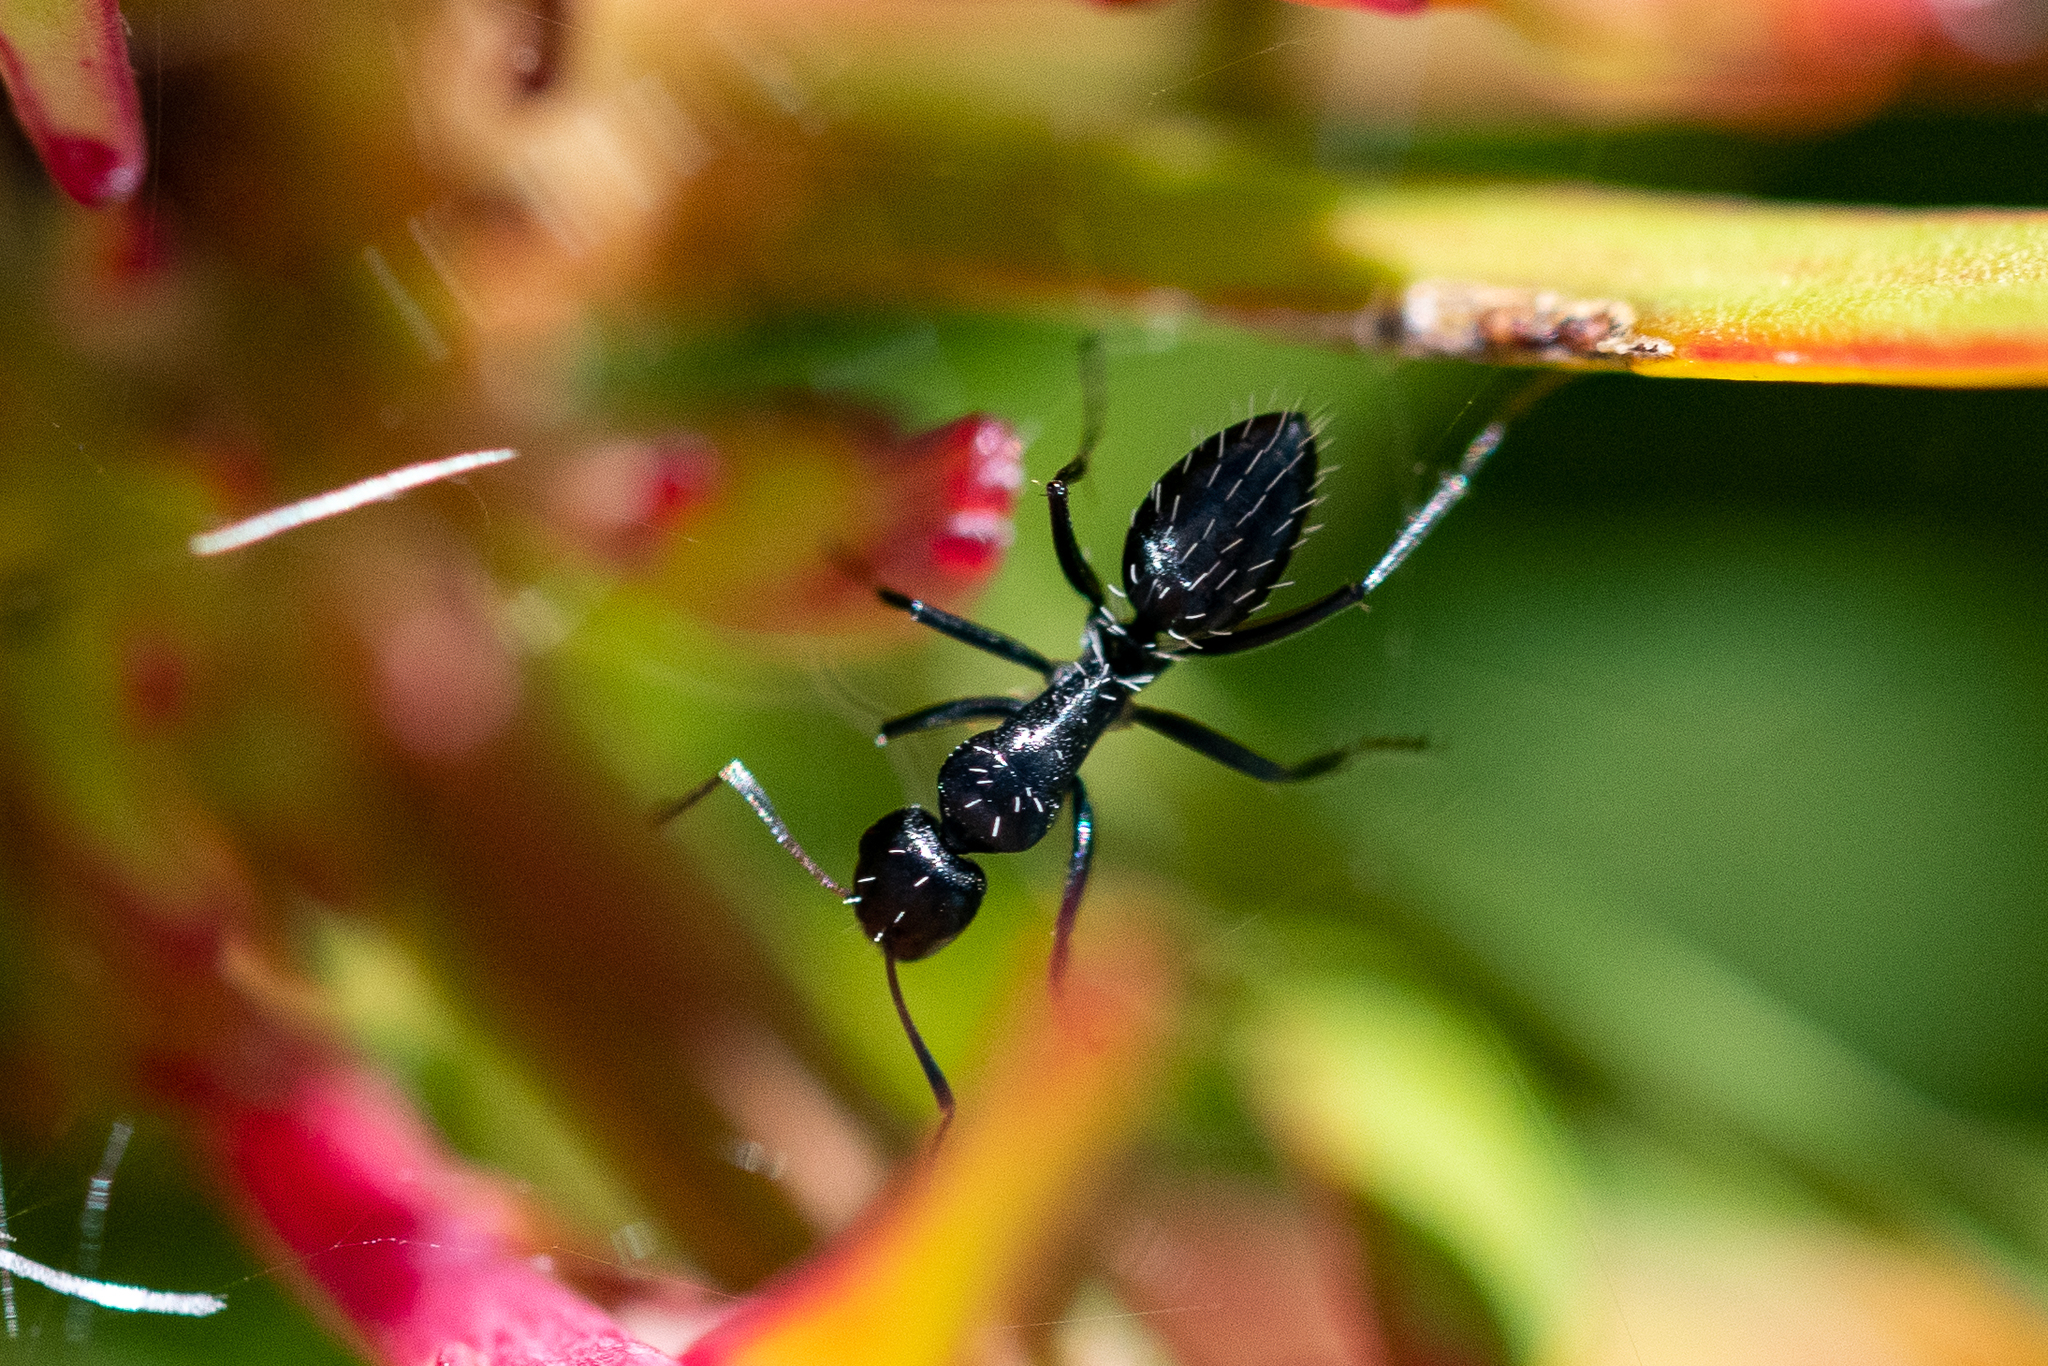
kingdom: Animalia
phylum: Arthropoda
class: Insecta
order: Hymenoptera
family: Formicidae
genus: Camponotus
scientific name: Camponotus niveosetosus
